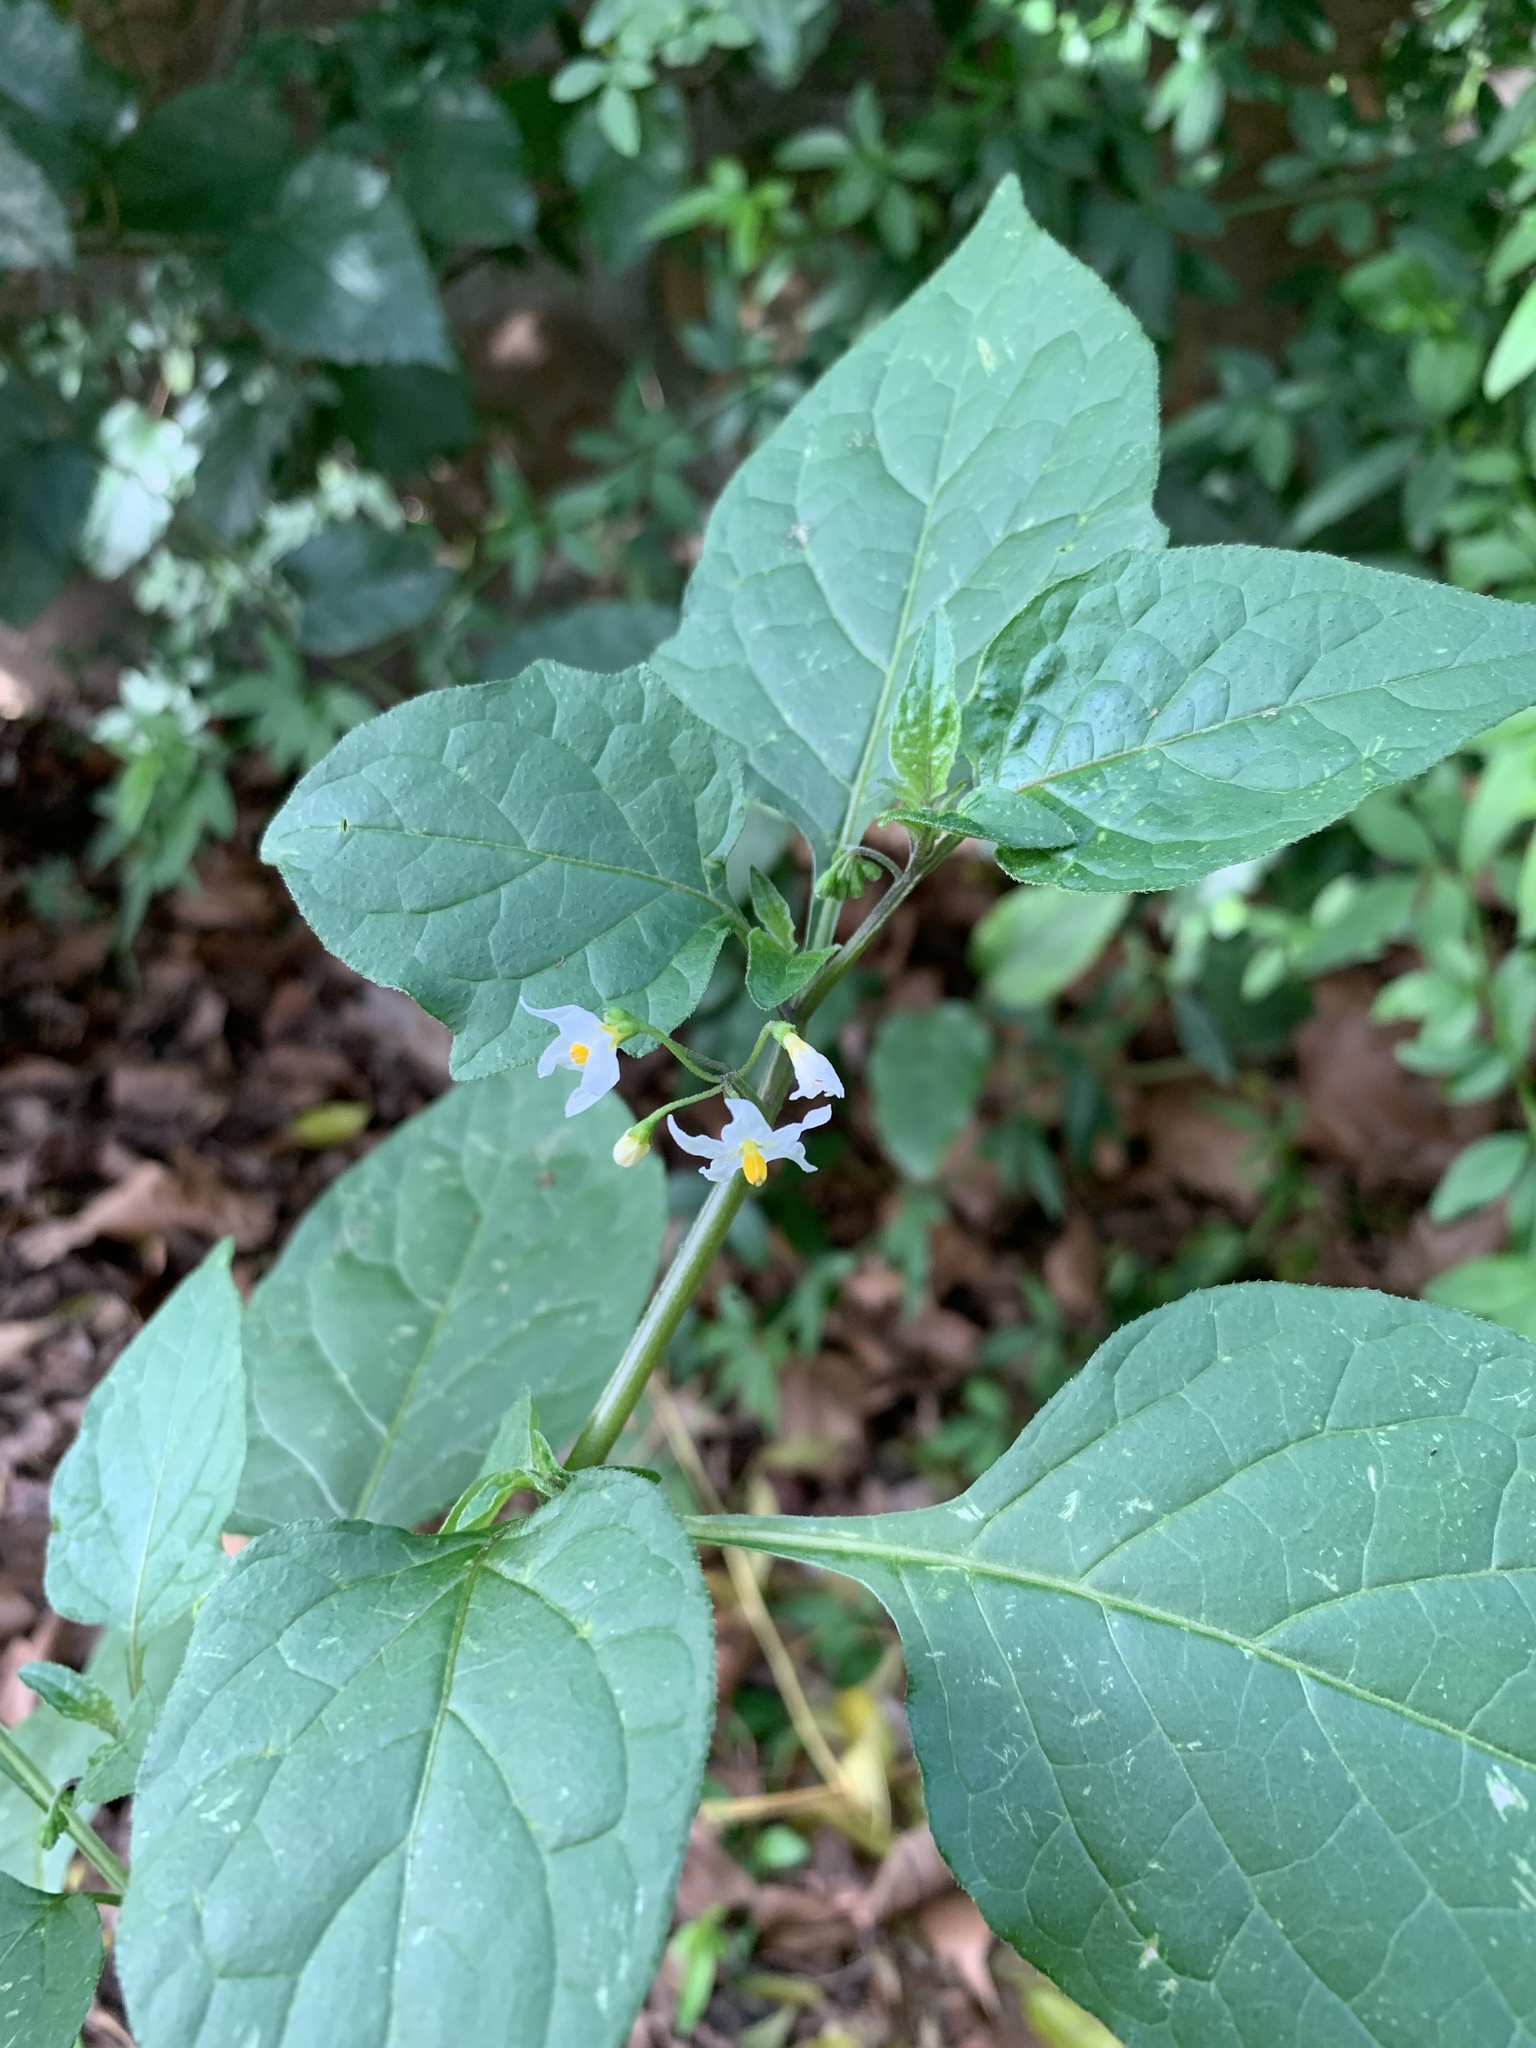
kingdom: Plantae
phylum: Tracheophyta
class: Magnoliopsida
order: Solanales
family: Solanaceae
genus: Solanum
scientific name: Solanum nigrum
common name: Black nightshade
